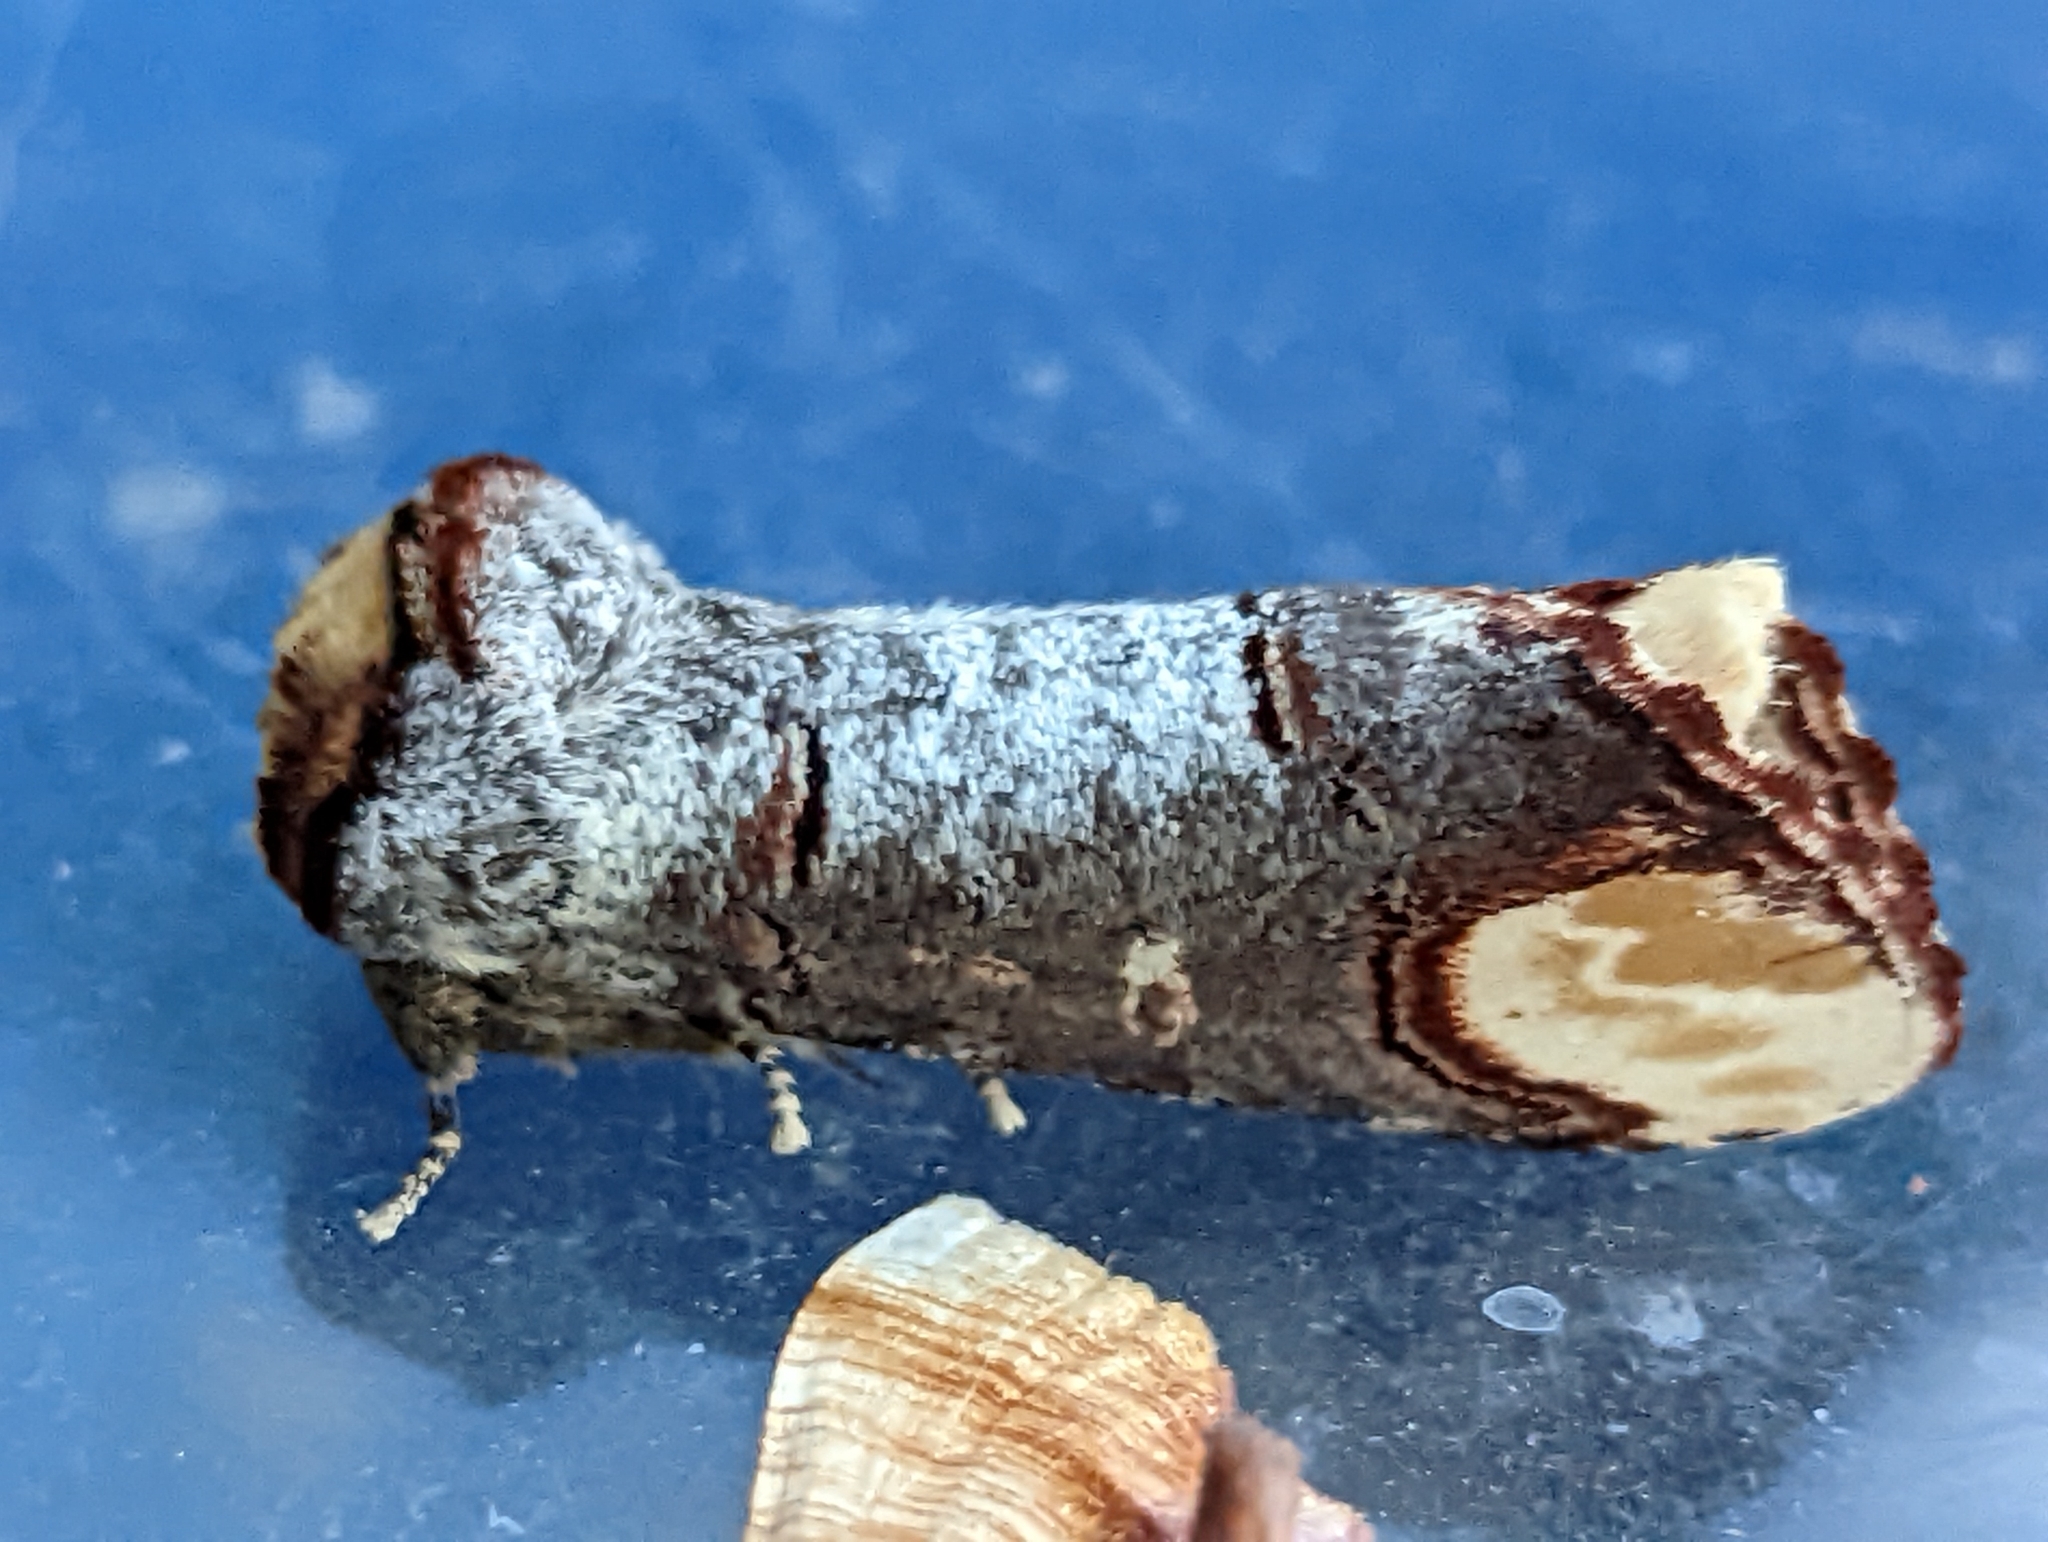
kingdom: Animalia
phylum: Arthropoda
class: Insecta
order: Lepidoptera
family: Notodontidae
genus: Phalera
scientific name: Phalera bucephala
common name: Buff-tip
